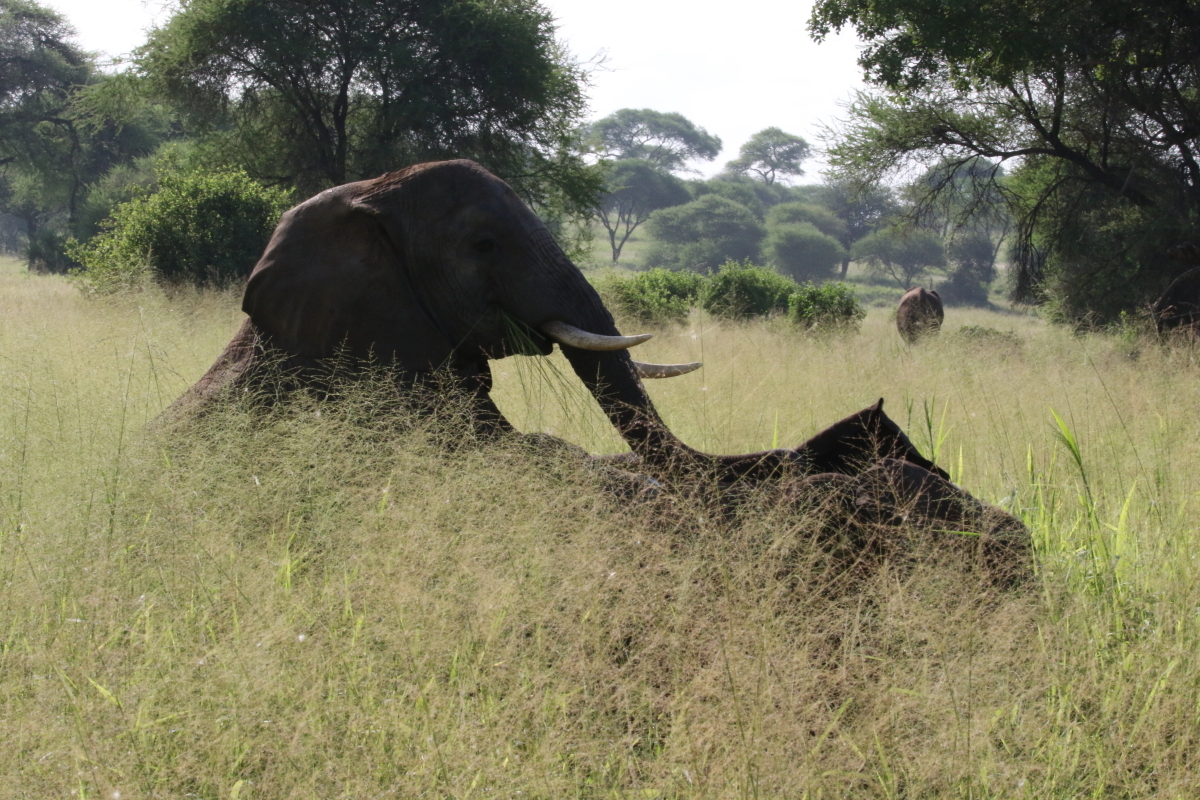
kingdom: Animalia
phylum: Chordata
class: Mammalia
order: Proboscidea
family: Elephantidae
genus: Loxodonta
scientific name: Loxodonta africana
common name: African elephant
